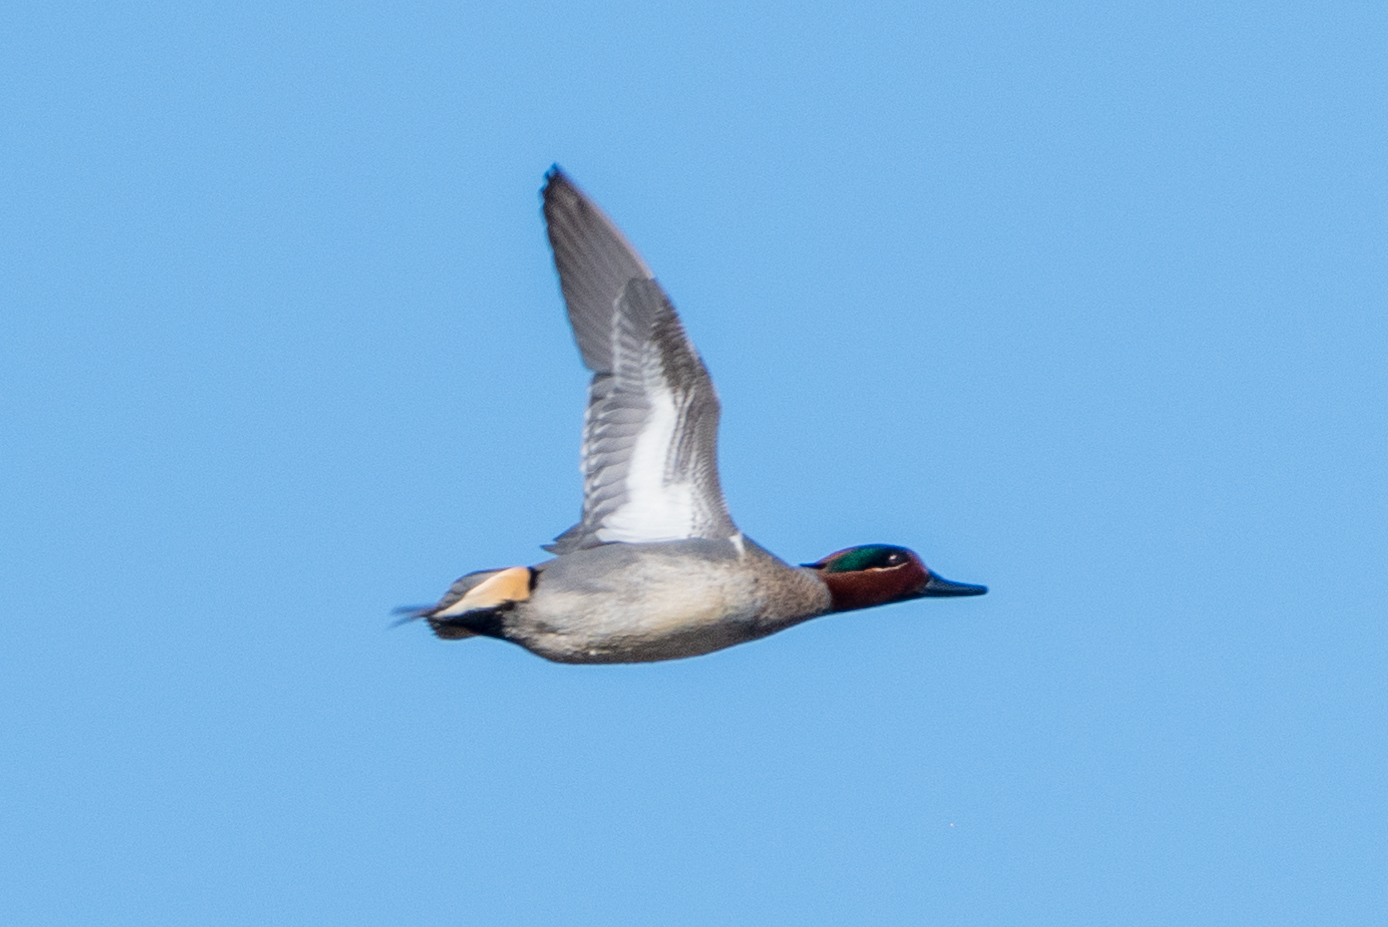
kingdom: Animalia
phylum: Chordata
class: Aves
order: Anseriformes
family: Anatidae
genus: Anas
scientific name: Anas crecca
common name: Eurasian teal
